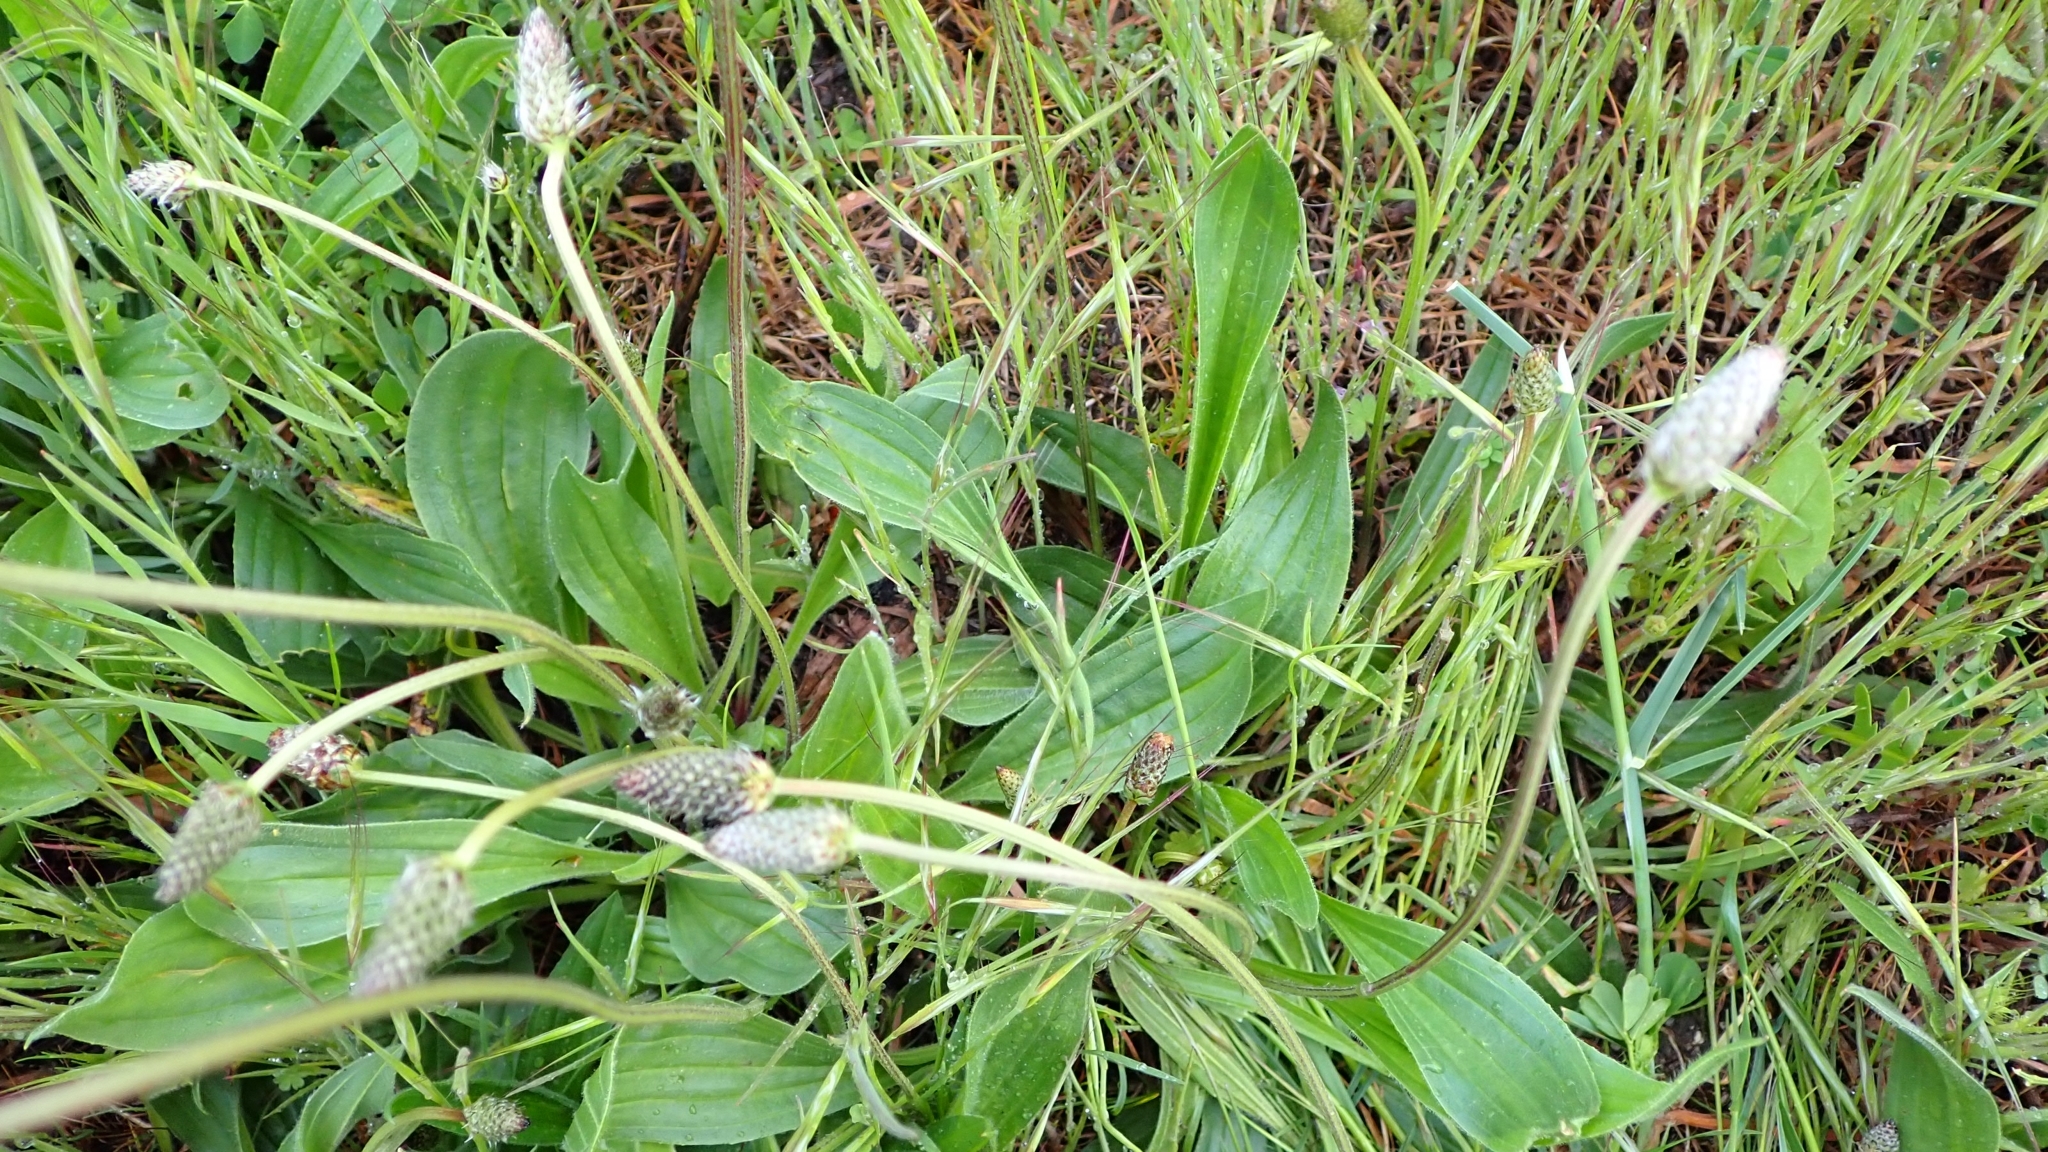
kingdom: Plantae
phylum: Tracheophyta
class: Magnoliopsida
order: Lamiales
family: Plantaginaceae
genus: Plantago
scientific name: Plantago lanceolata
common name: Ribwort plantain
